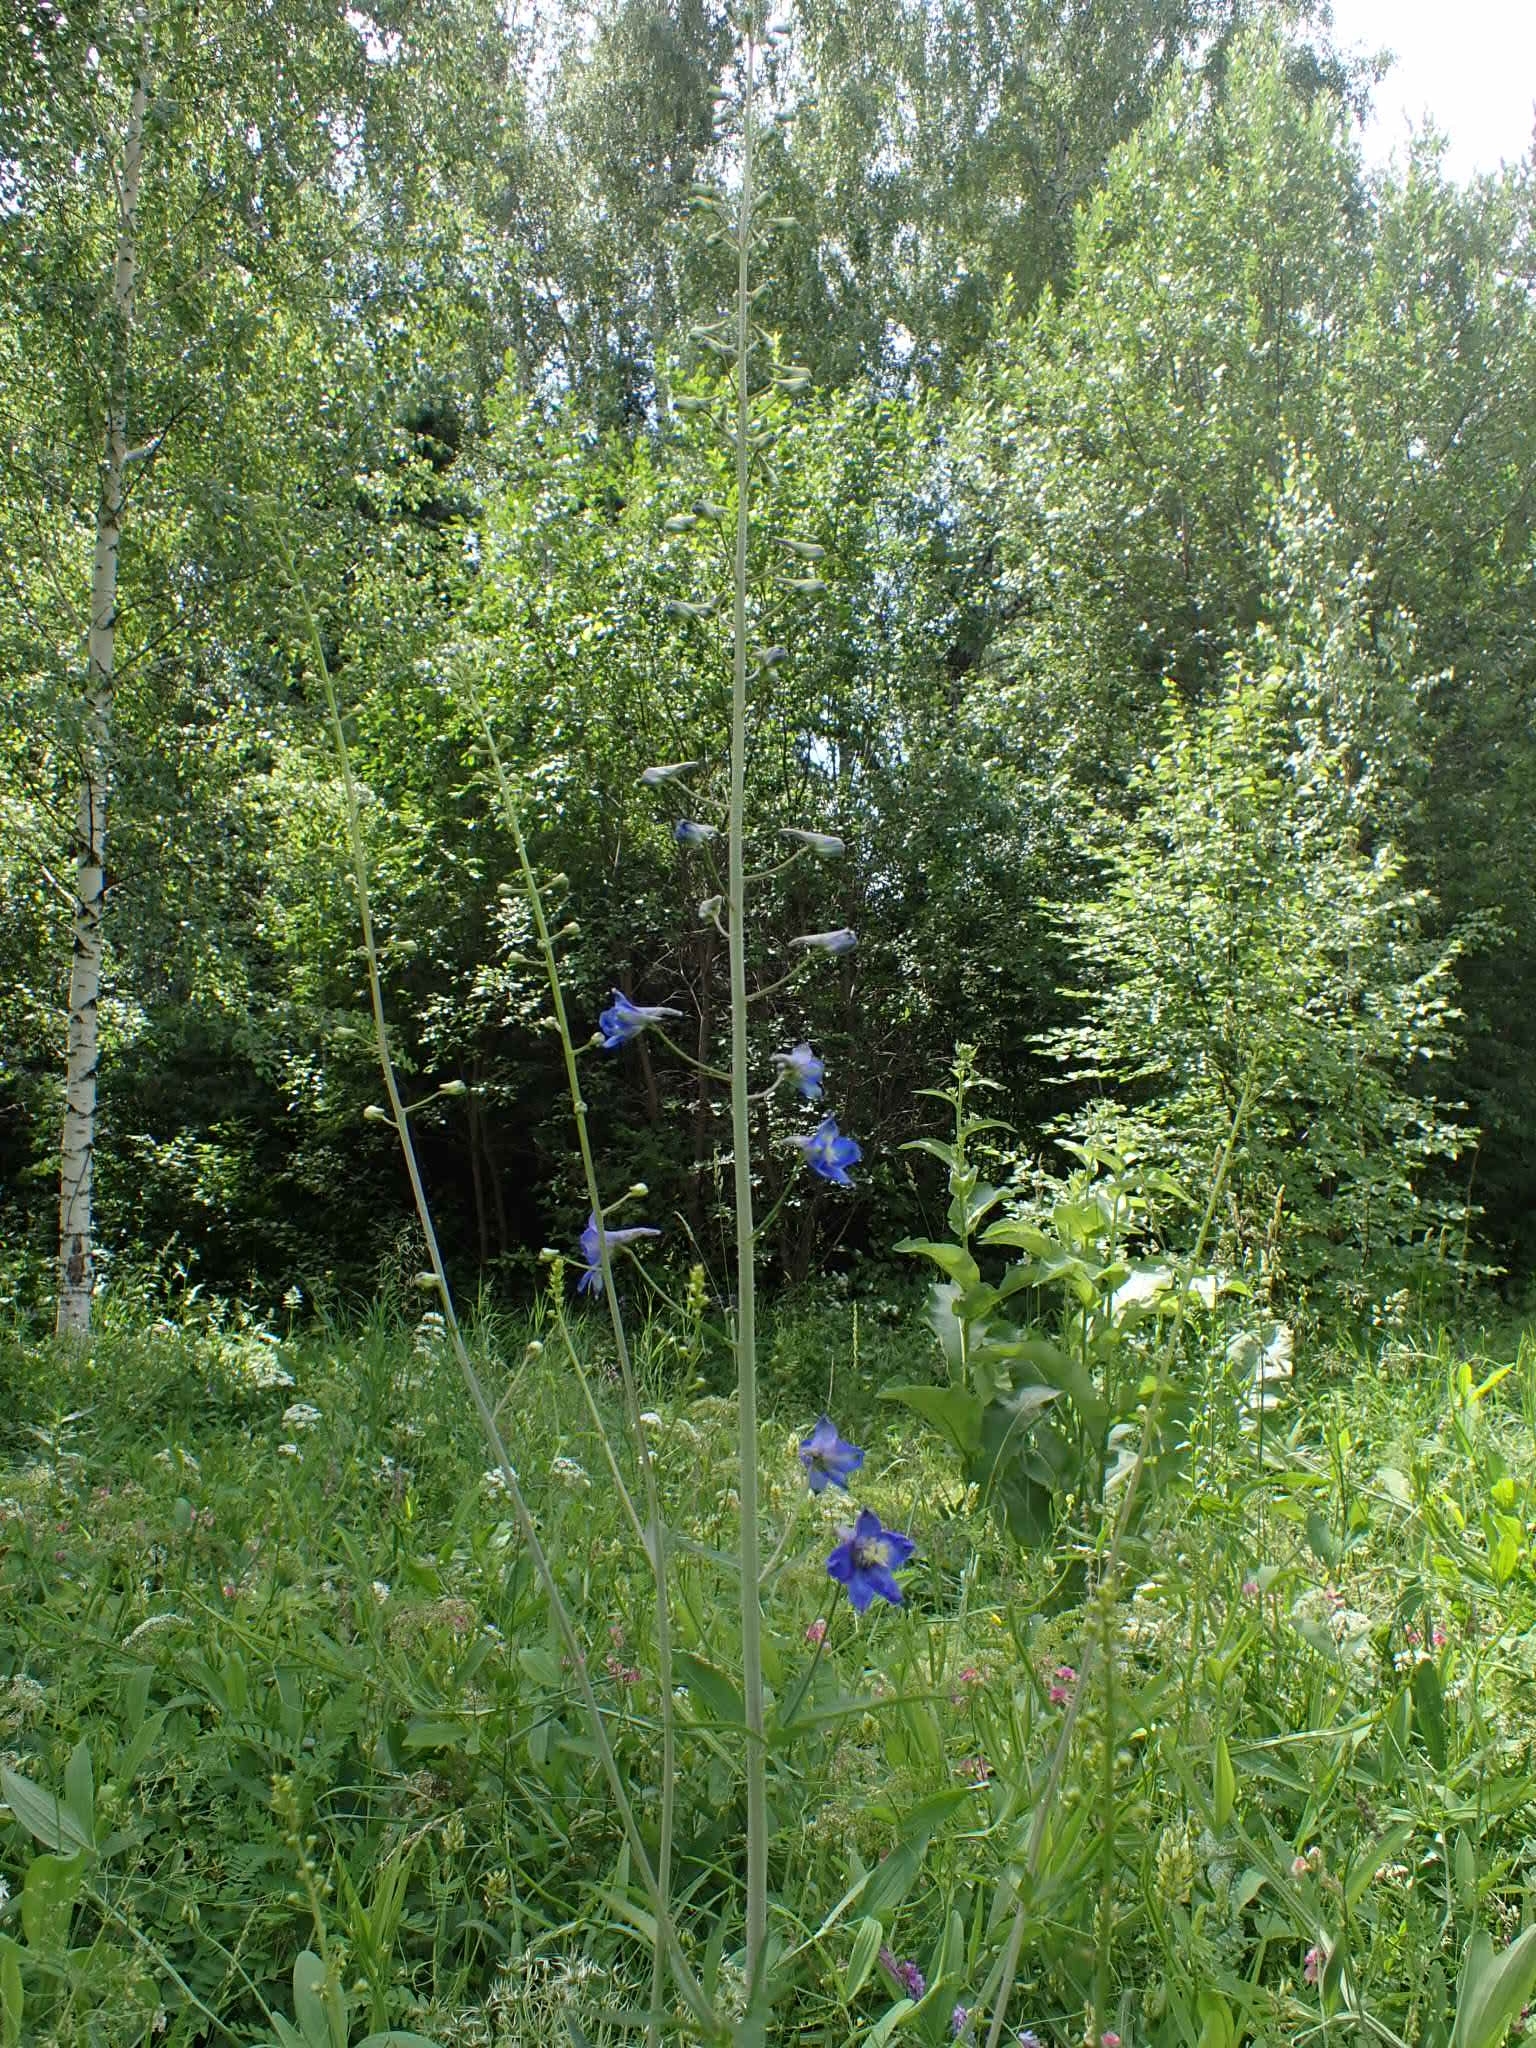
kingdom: Plantae
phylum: Tracheophyta
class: Magnoliopsida
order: Ranunculales
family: Ranunculaceae
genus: Delphinium
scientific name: Delphinium elatum
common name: Candle larkspur
